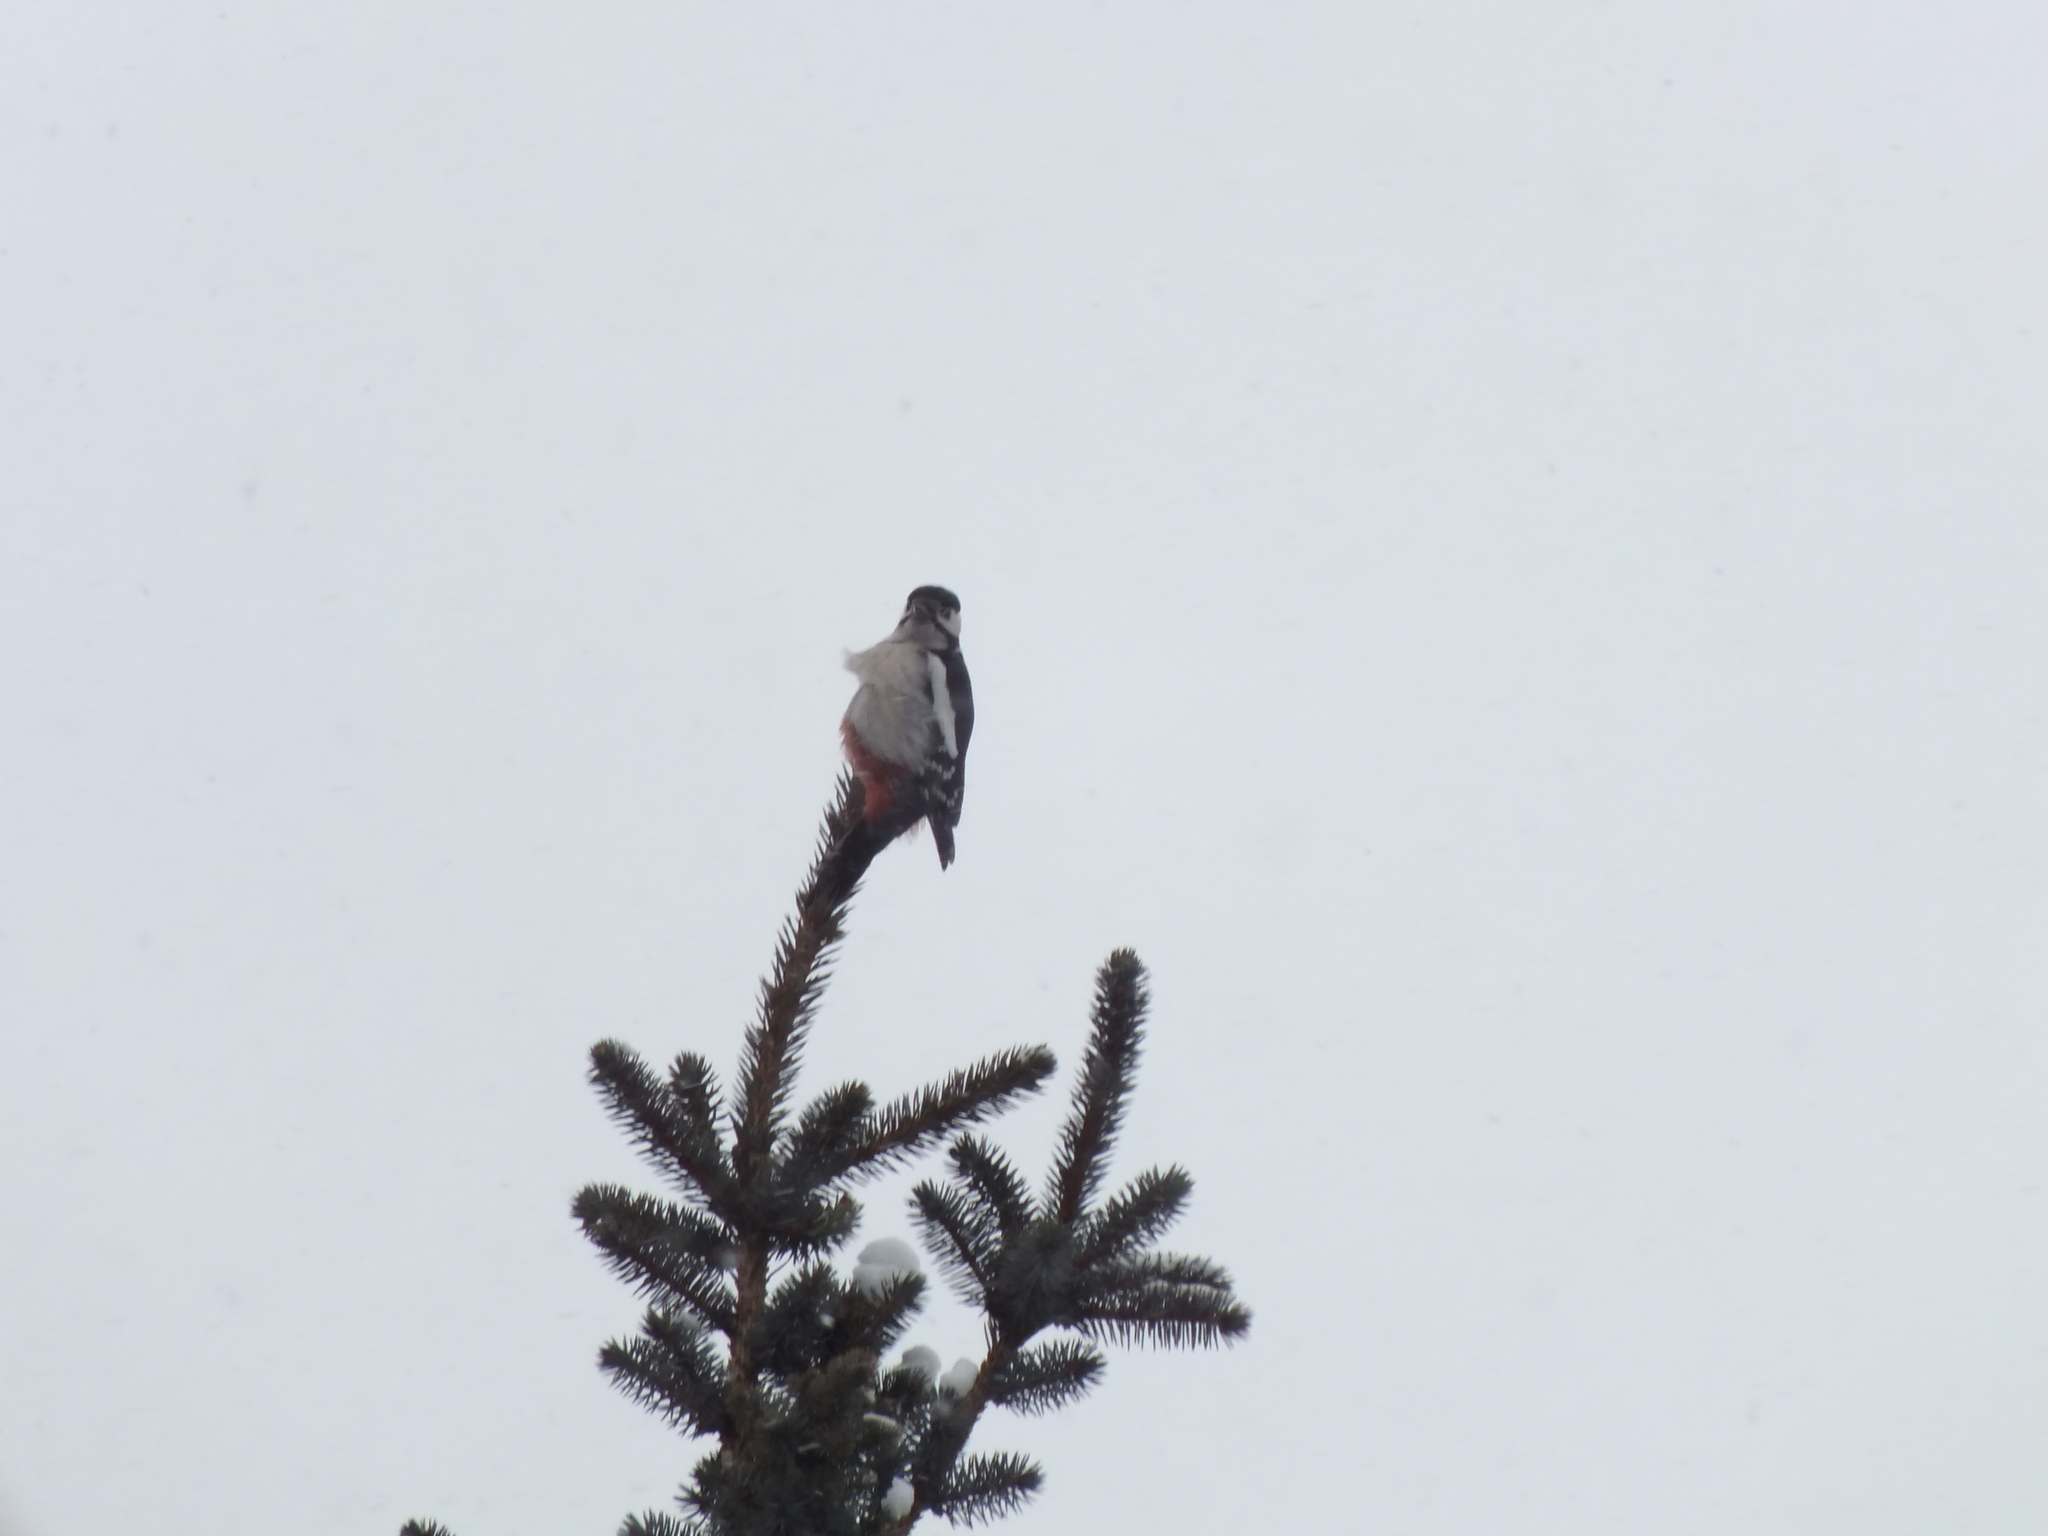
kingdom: Animalia
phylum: Chordata
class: Aves
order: Piciformes
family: Picidae
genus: Dendrocopos
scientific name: Dendrocopos major
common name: Great spotted woodpecker
